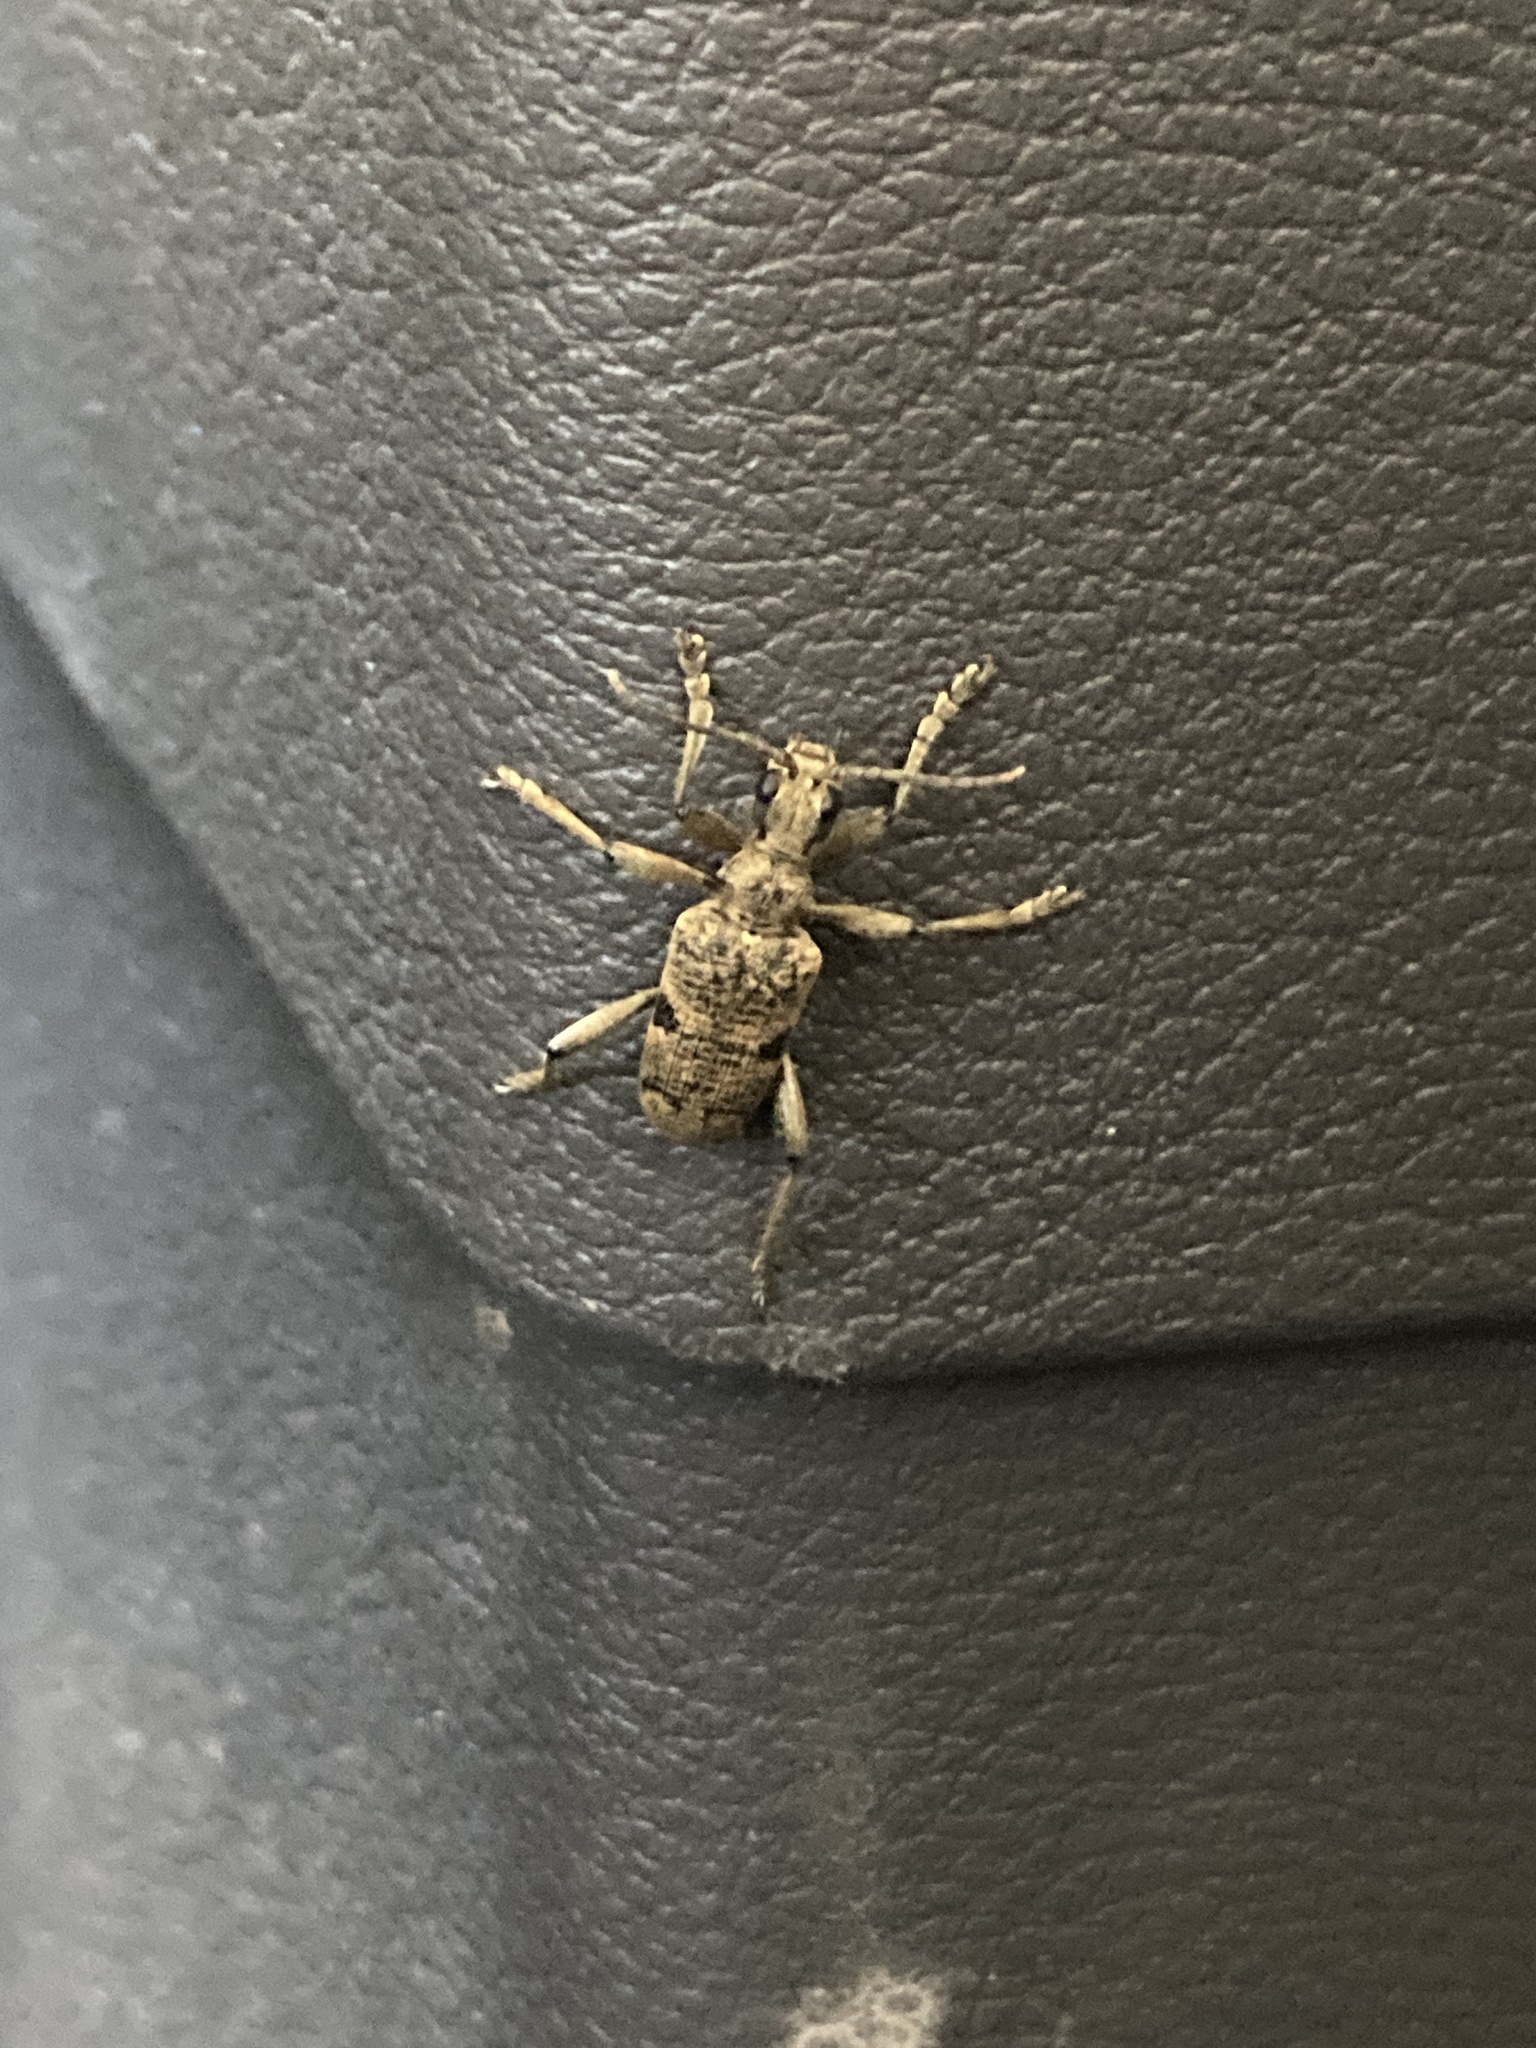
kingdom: Animalia
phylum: Arthropoda
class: Insecta
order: Coleoptera
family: Cerambycidae
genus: Rhagium
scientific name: Rhagium mordax
